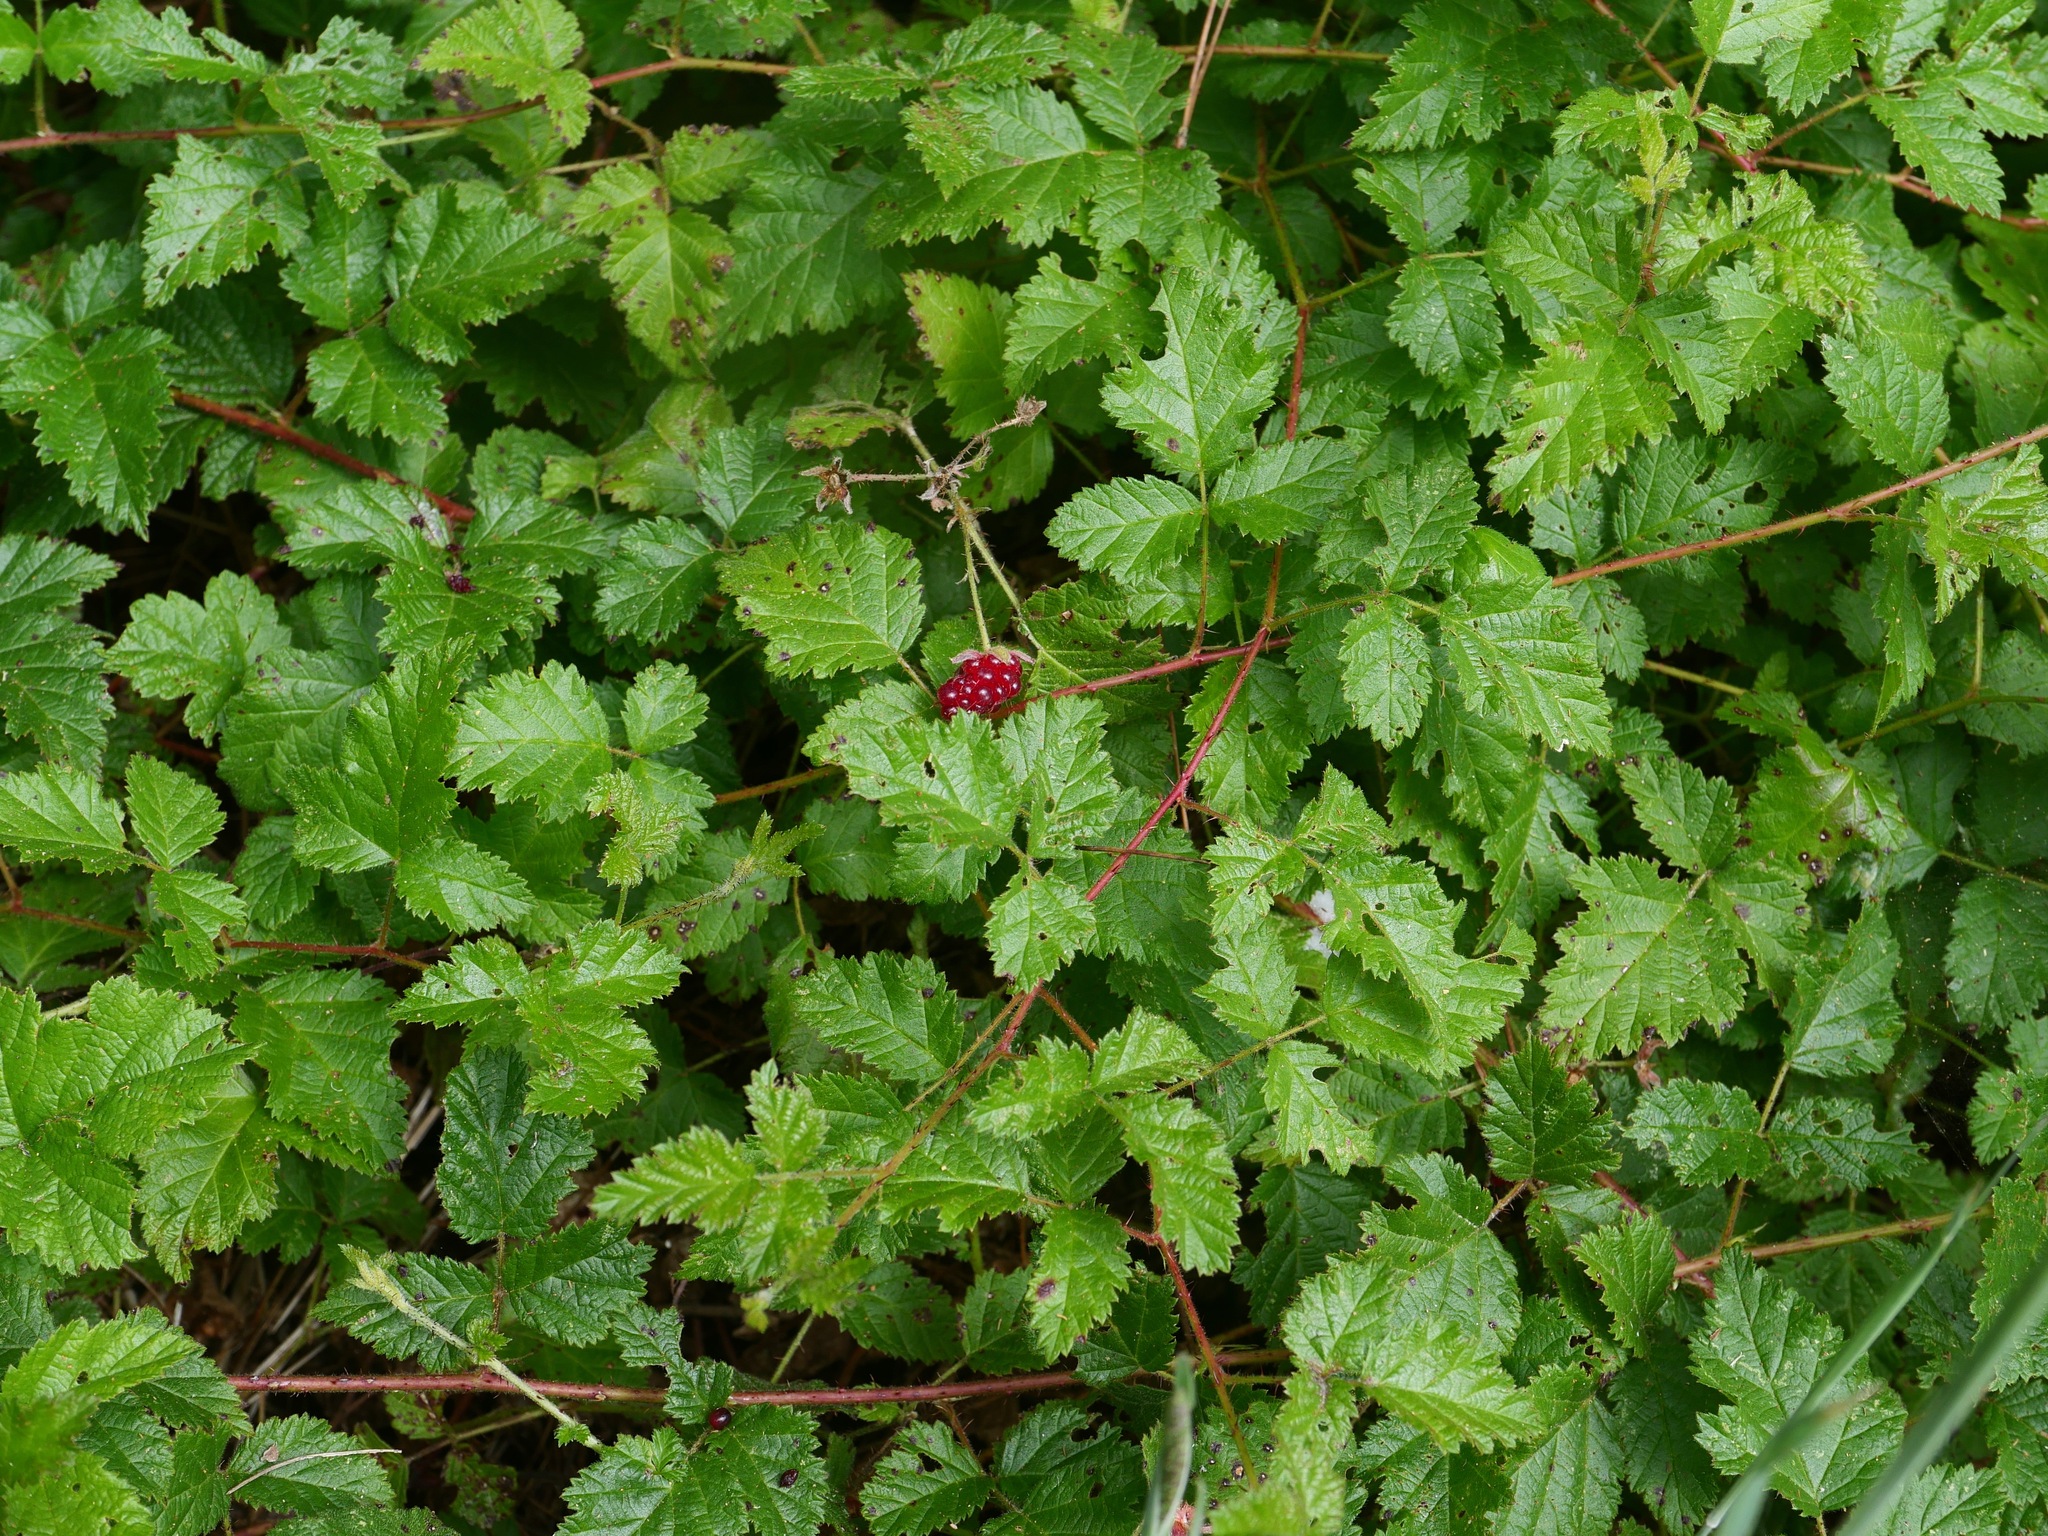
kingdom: Plantae
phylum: Tracheophyta
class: Magnoliopsida
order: Rosales
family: Rosaceae
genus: Rubus
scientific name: Rubus ursinus
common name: Pacific blackberry
